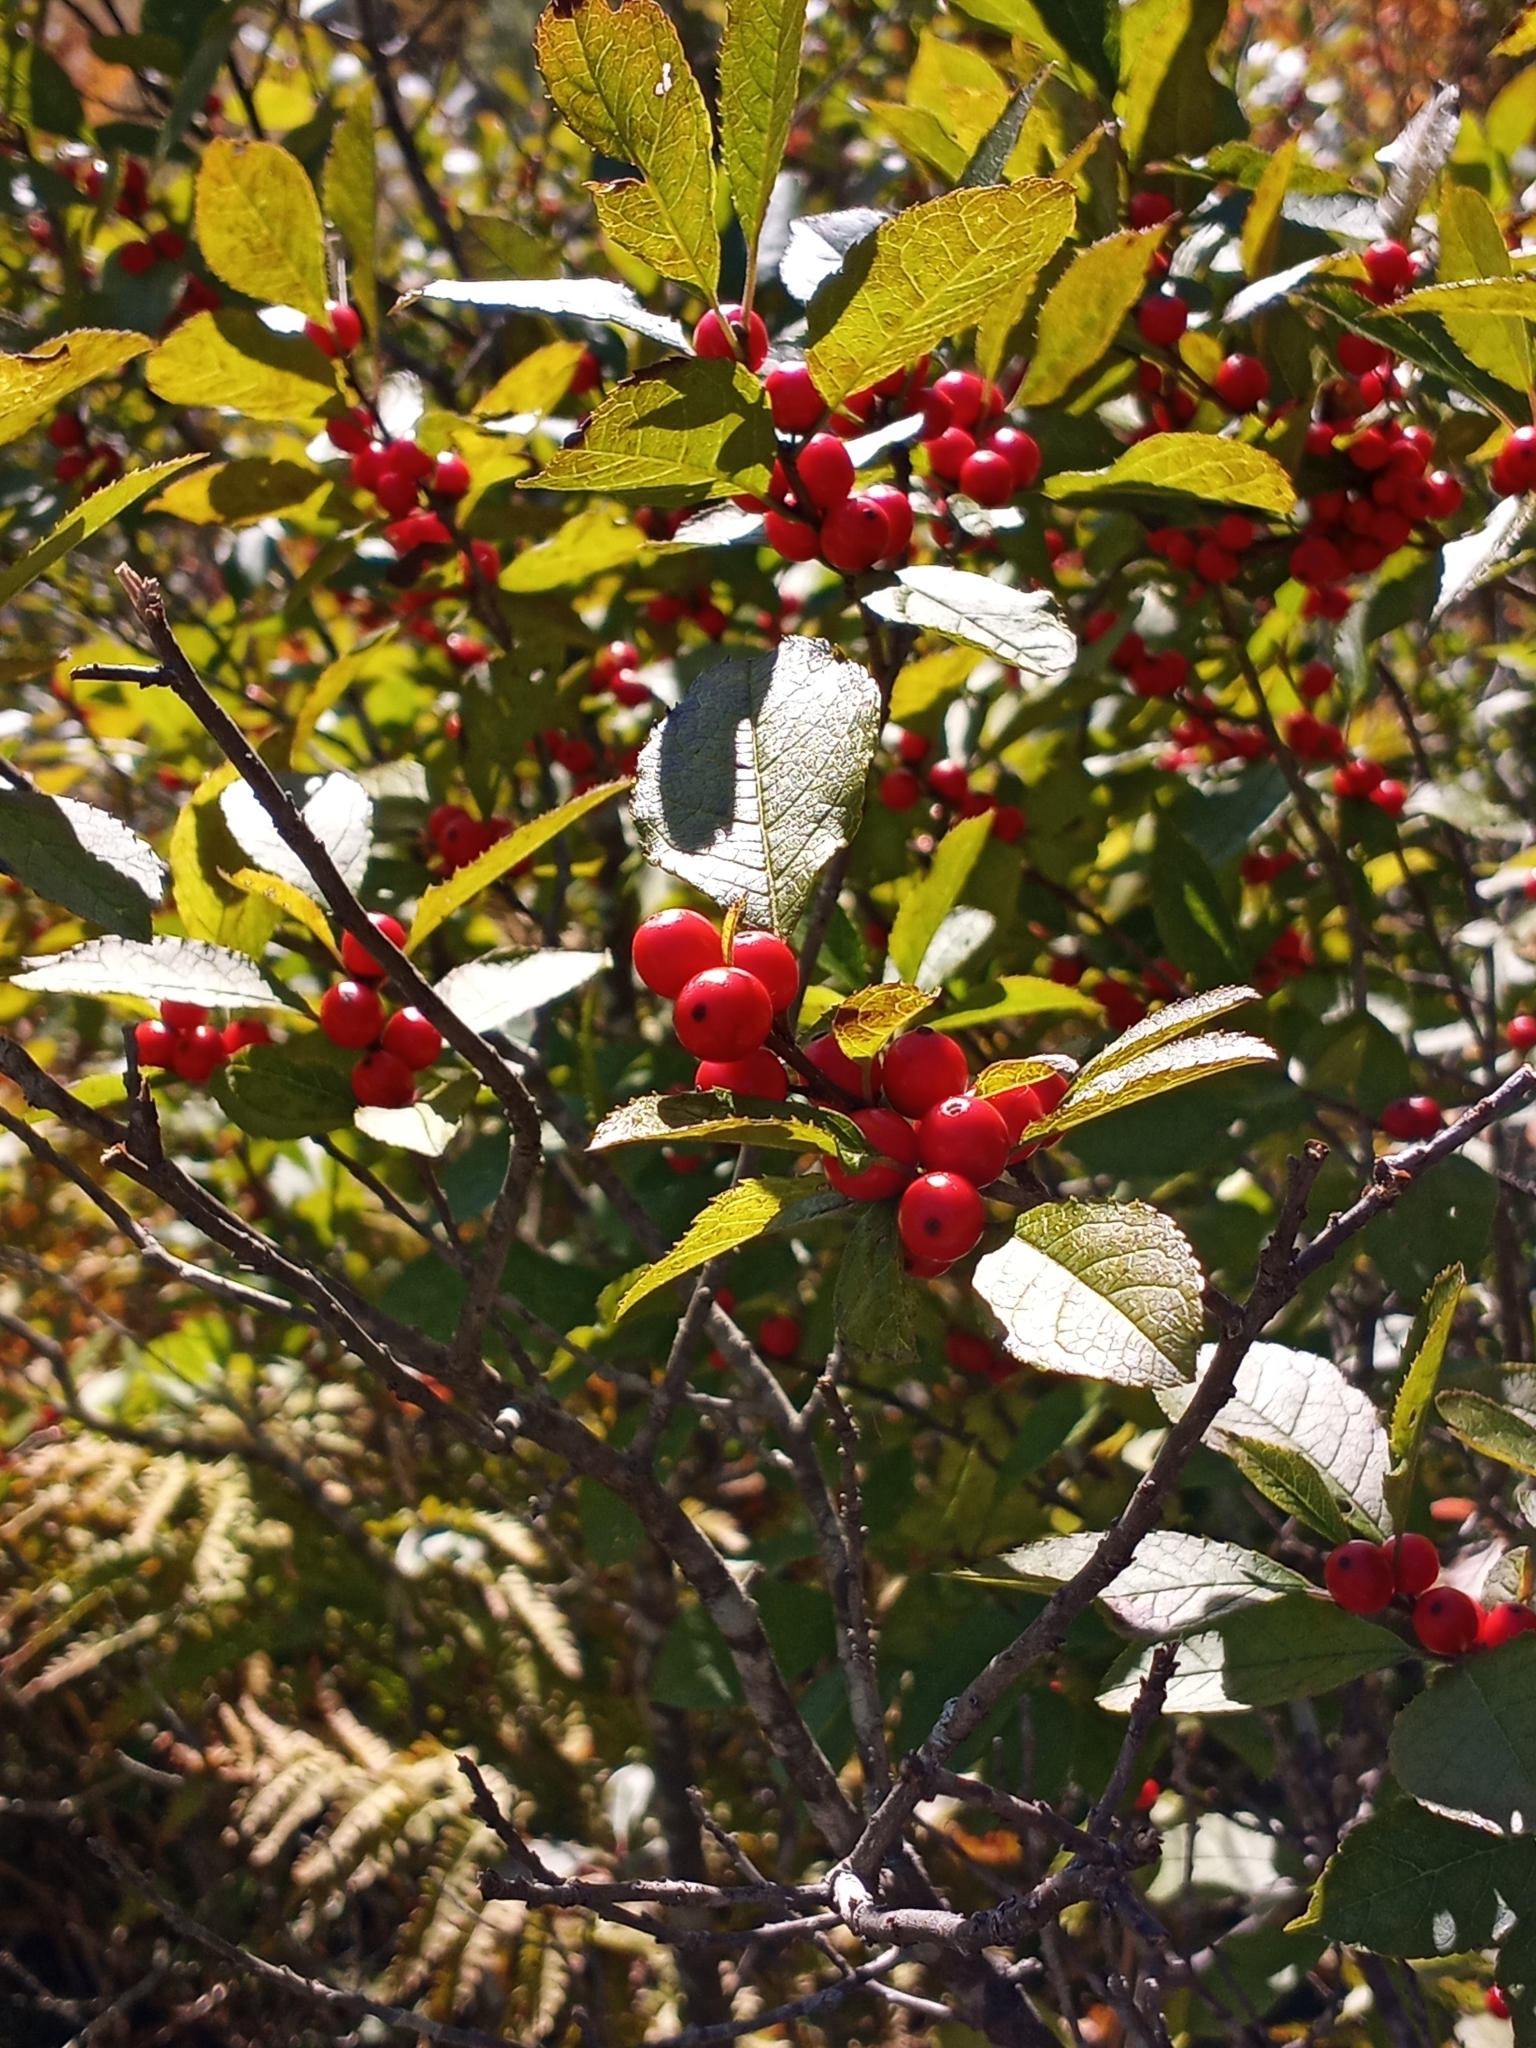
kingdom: Plantae
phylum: Tracheophyta
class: Magnoliopsida
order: Aquifoliales
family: Aquifoliaceae
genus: Ilex
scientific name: Ilex verticillata
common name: Virginia winterberry
